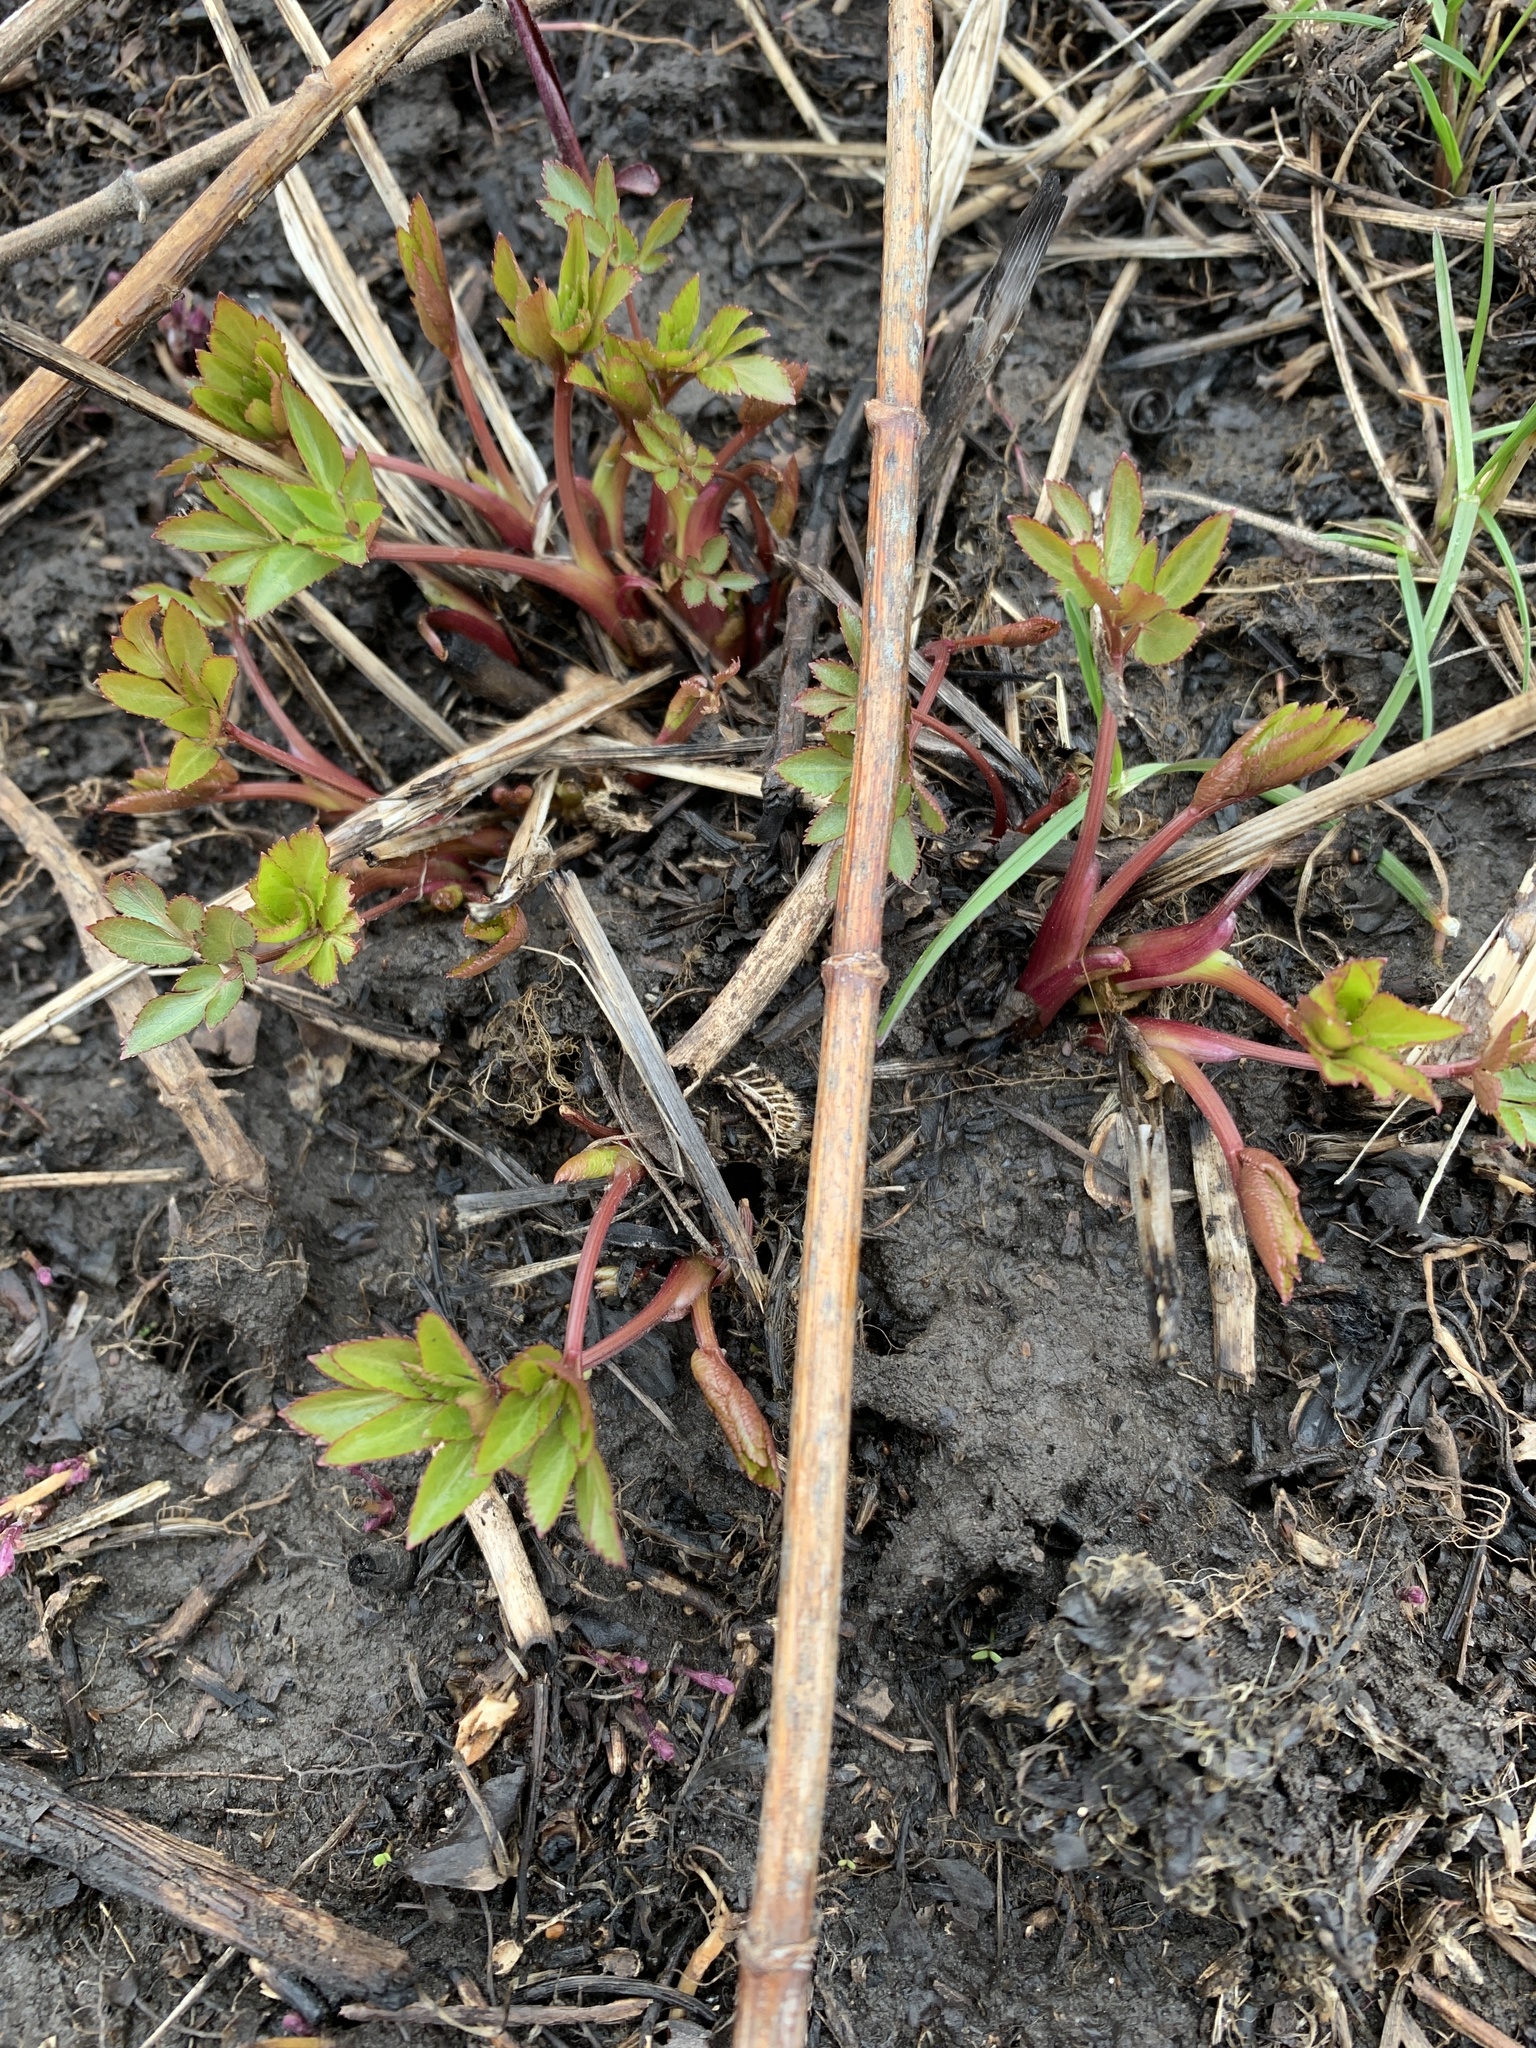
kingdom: Plantae
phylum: Tracheophyta
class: Magnoliopsida
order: Apiales
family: Apiaceae
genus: Zizia
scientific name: Zizia aurea
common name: Golden alexanders
